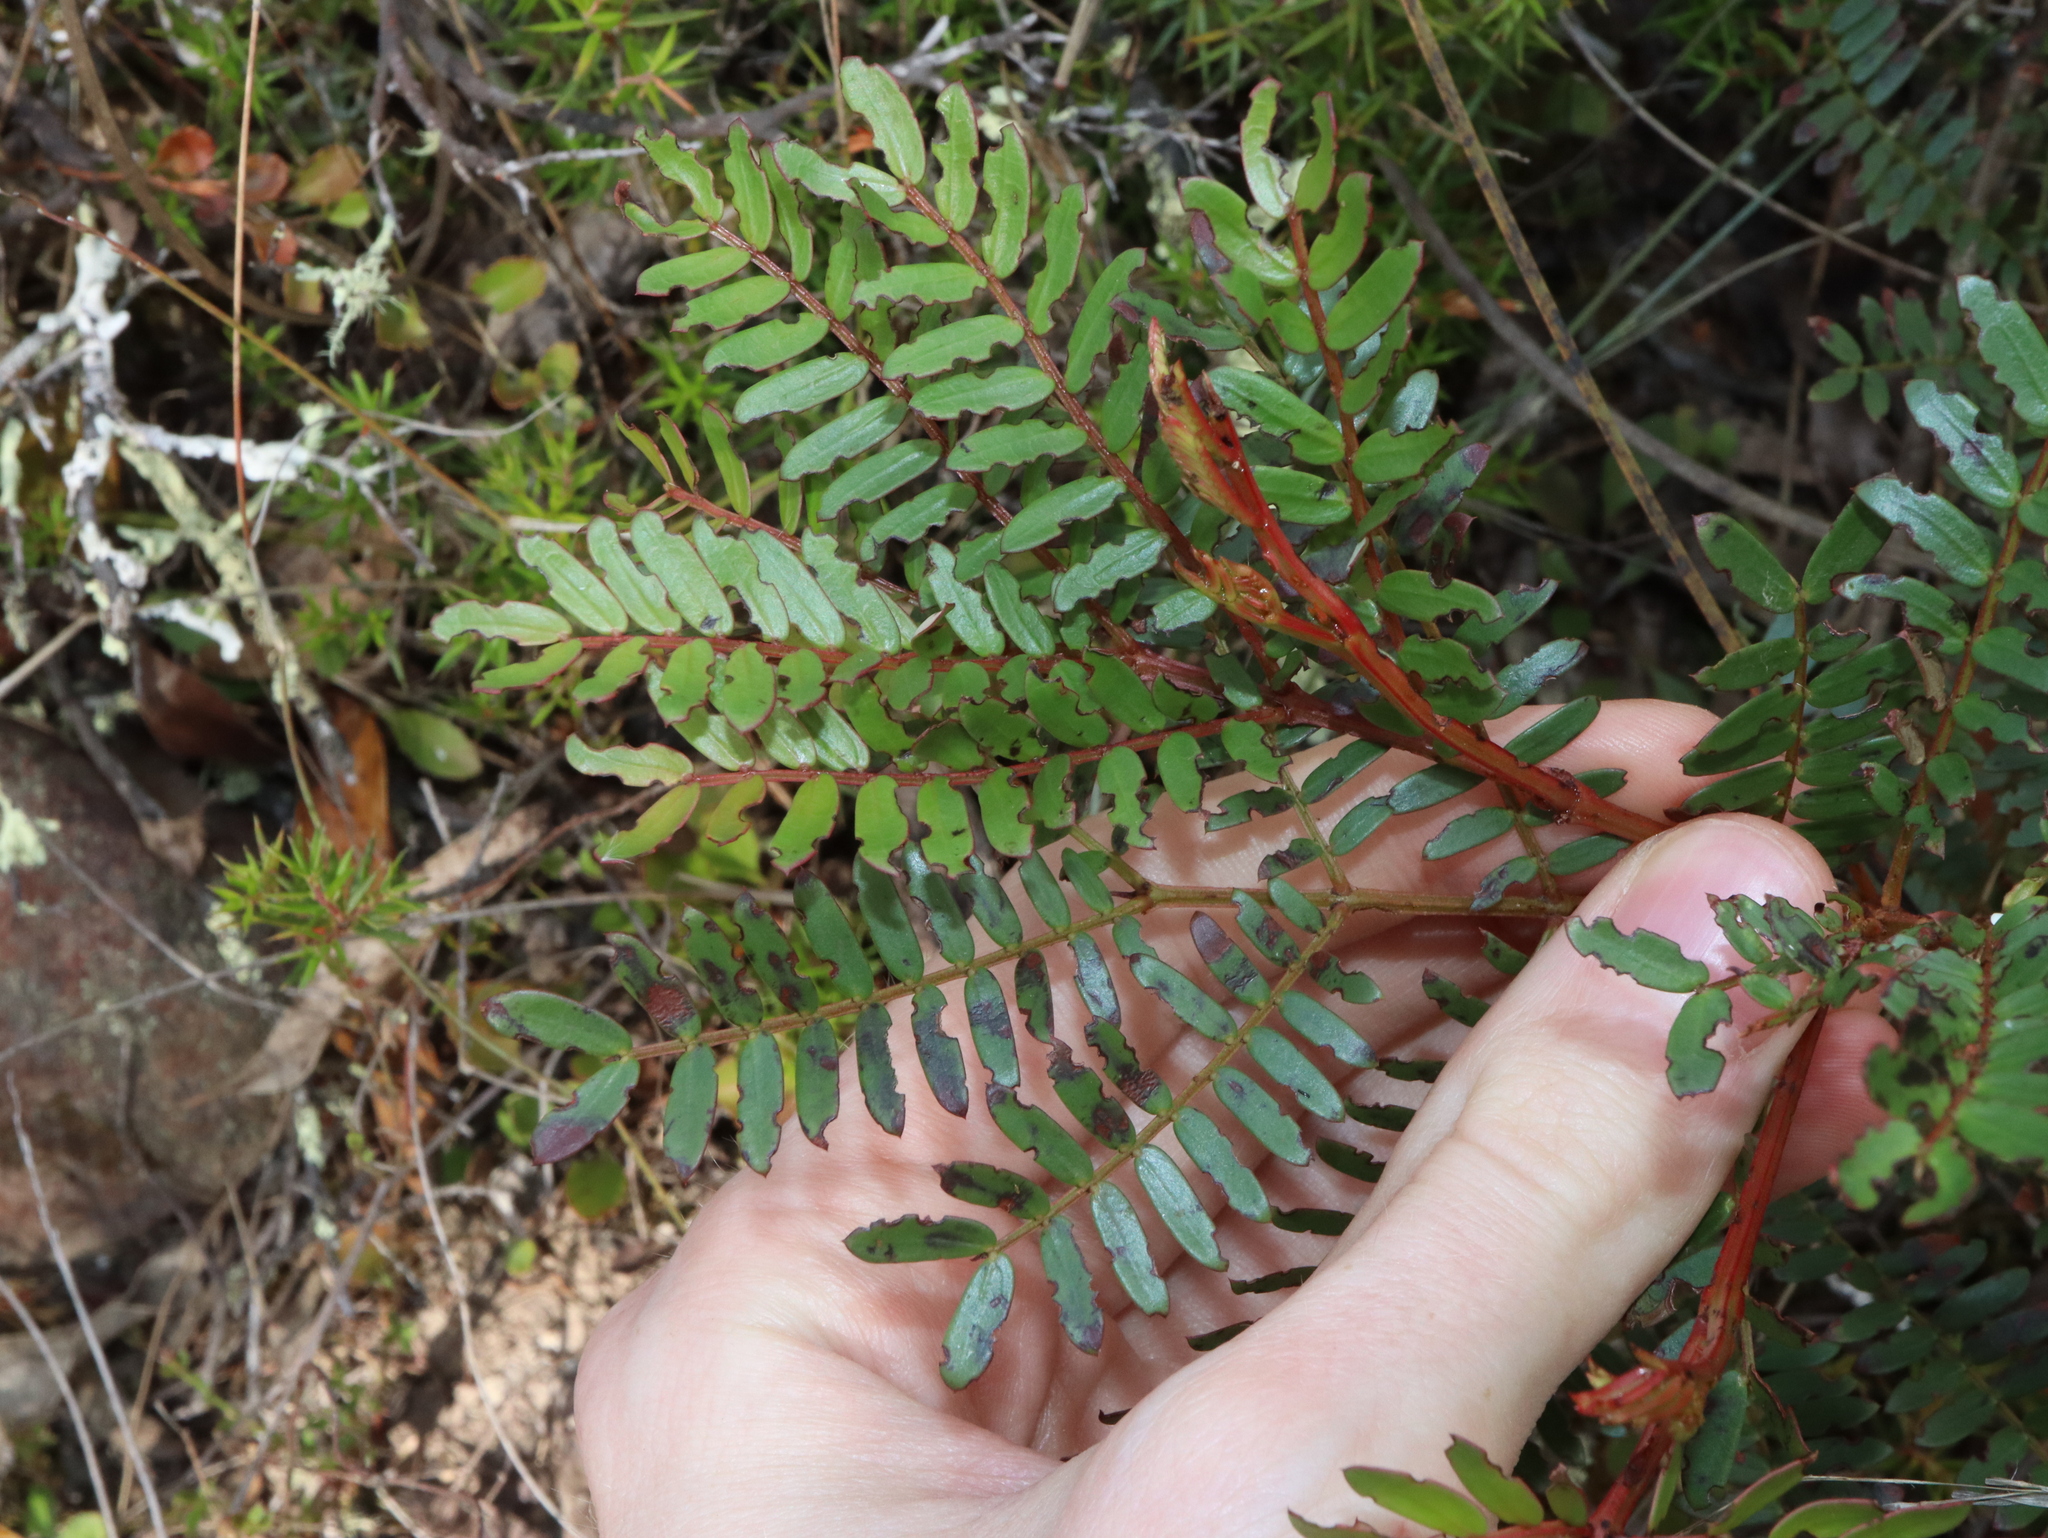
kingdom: Plantae
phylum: Tracheophyta
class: Magnoliopsida
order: Fabales
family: Fabaceae
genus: Acacia
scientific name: Acacia terminalis
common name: Cedar wattle
